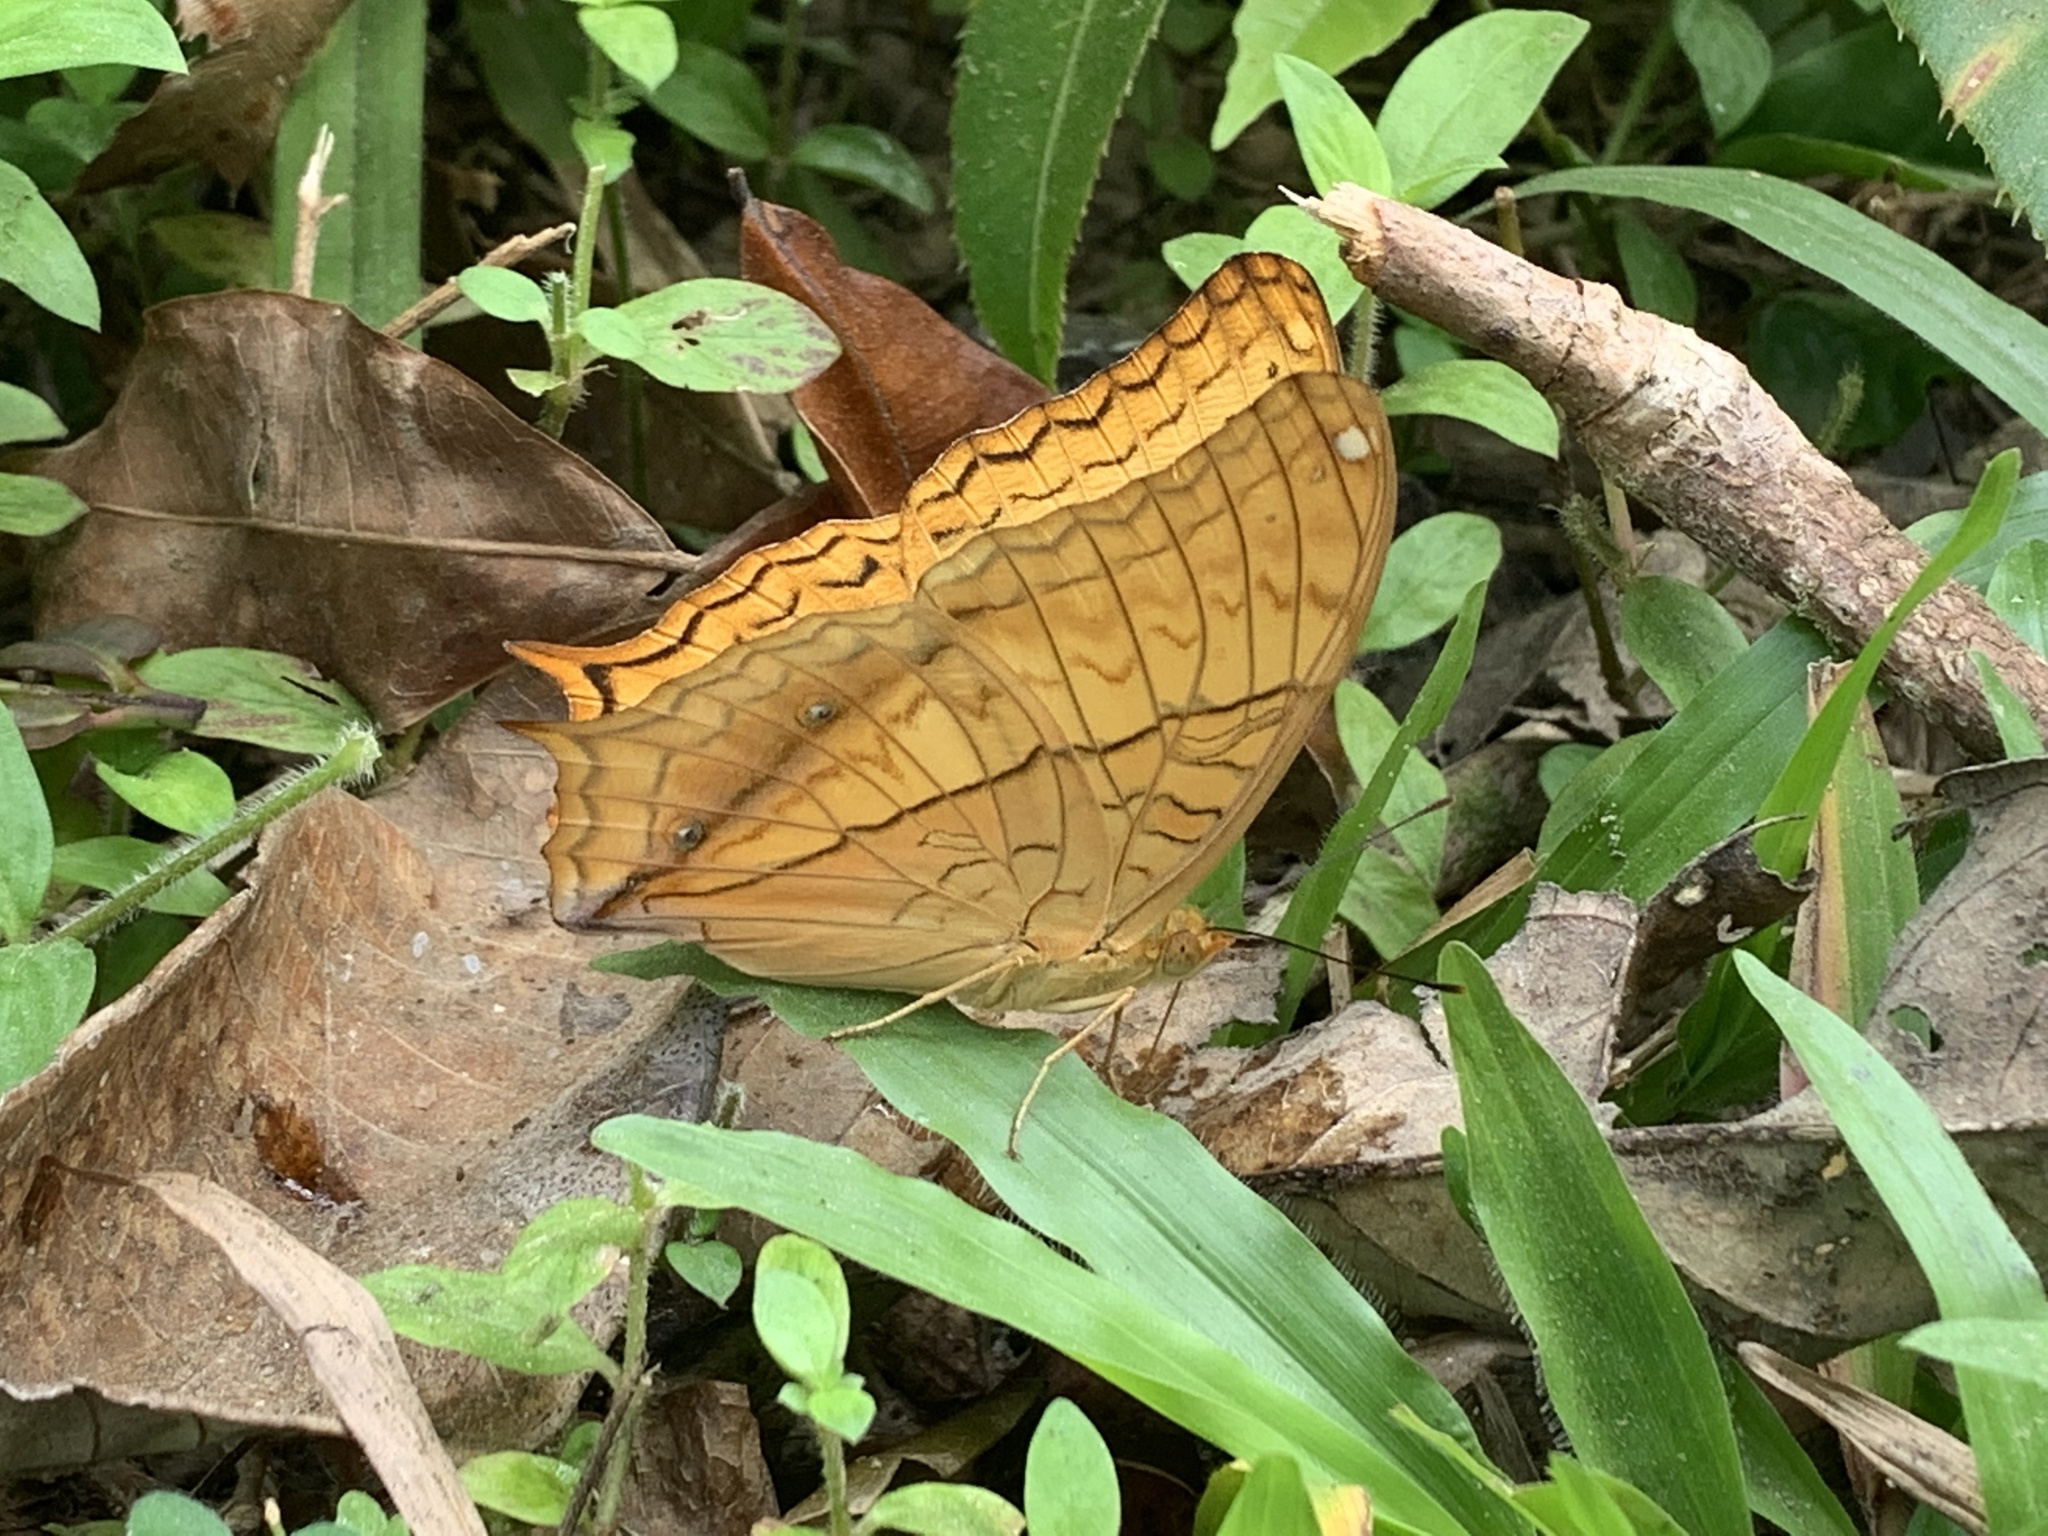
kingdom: Animalia
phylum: Arthropoda
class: Insecta
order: Lepidoptera
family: Nymphalidae
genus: Vindula
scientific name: Vindula erota
